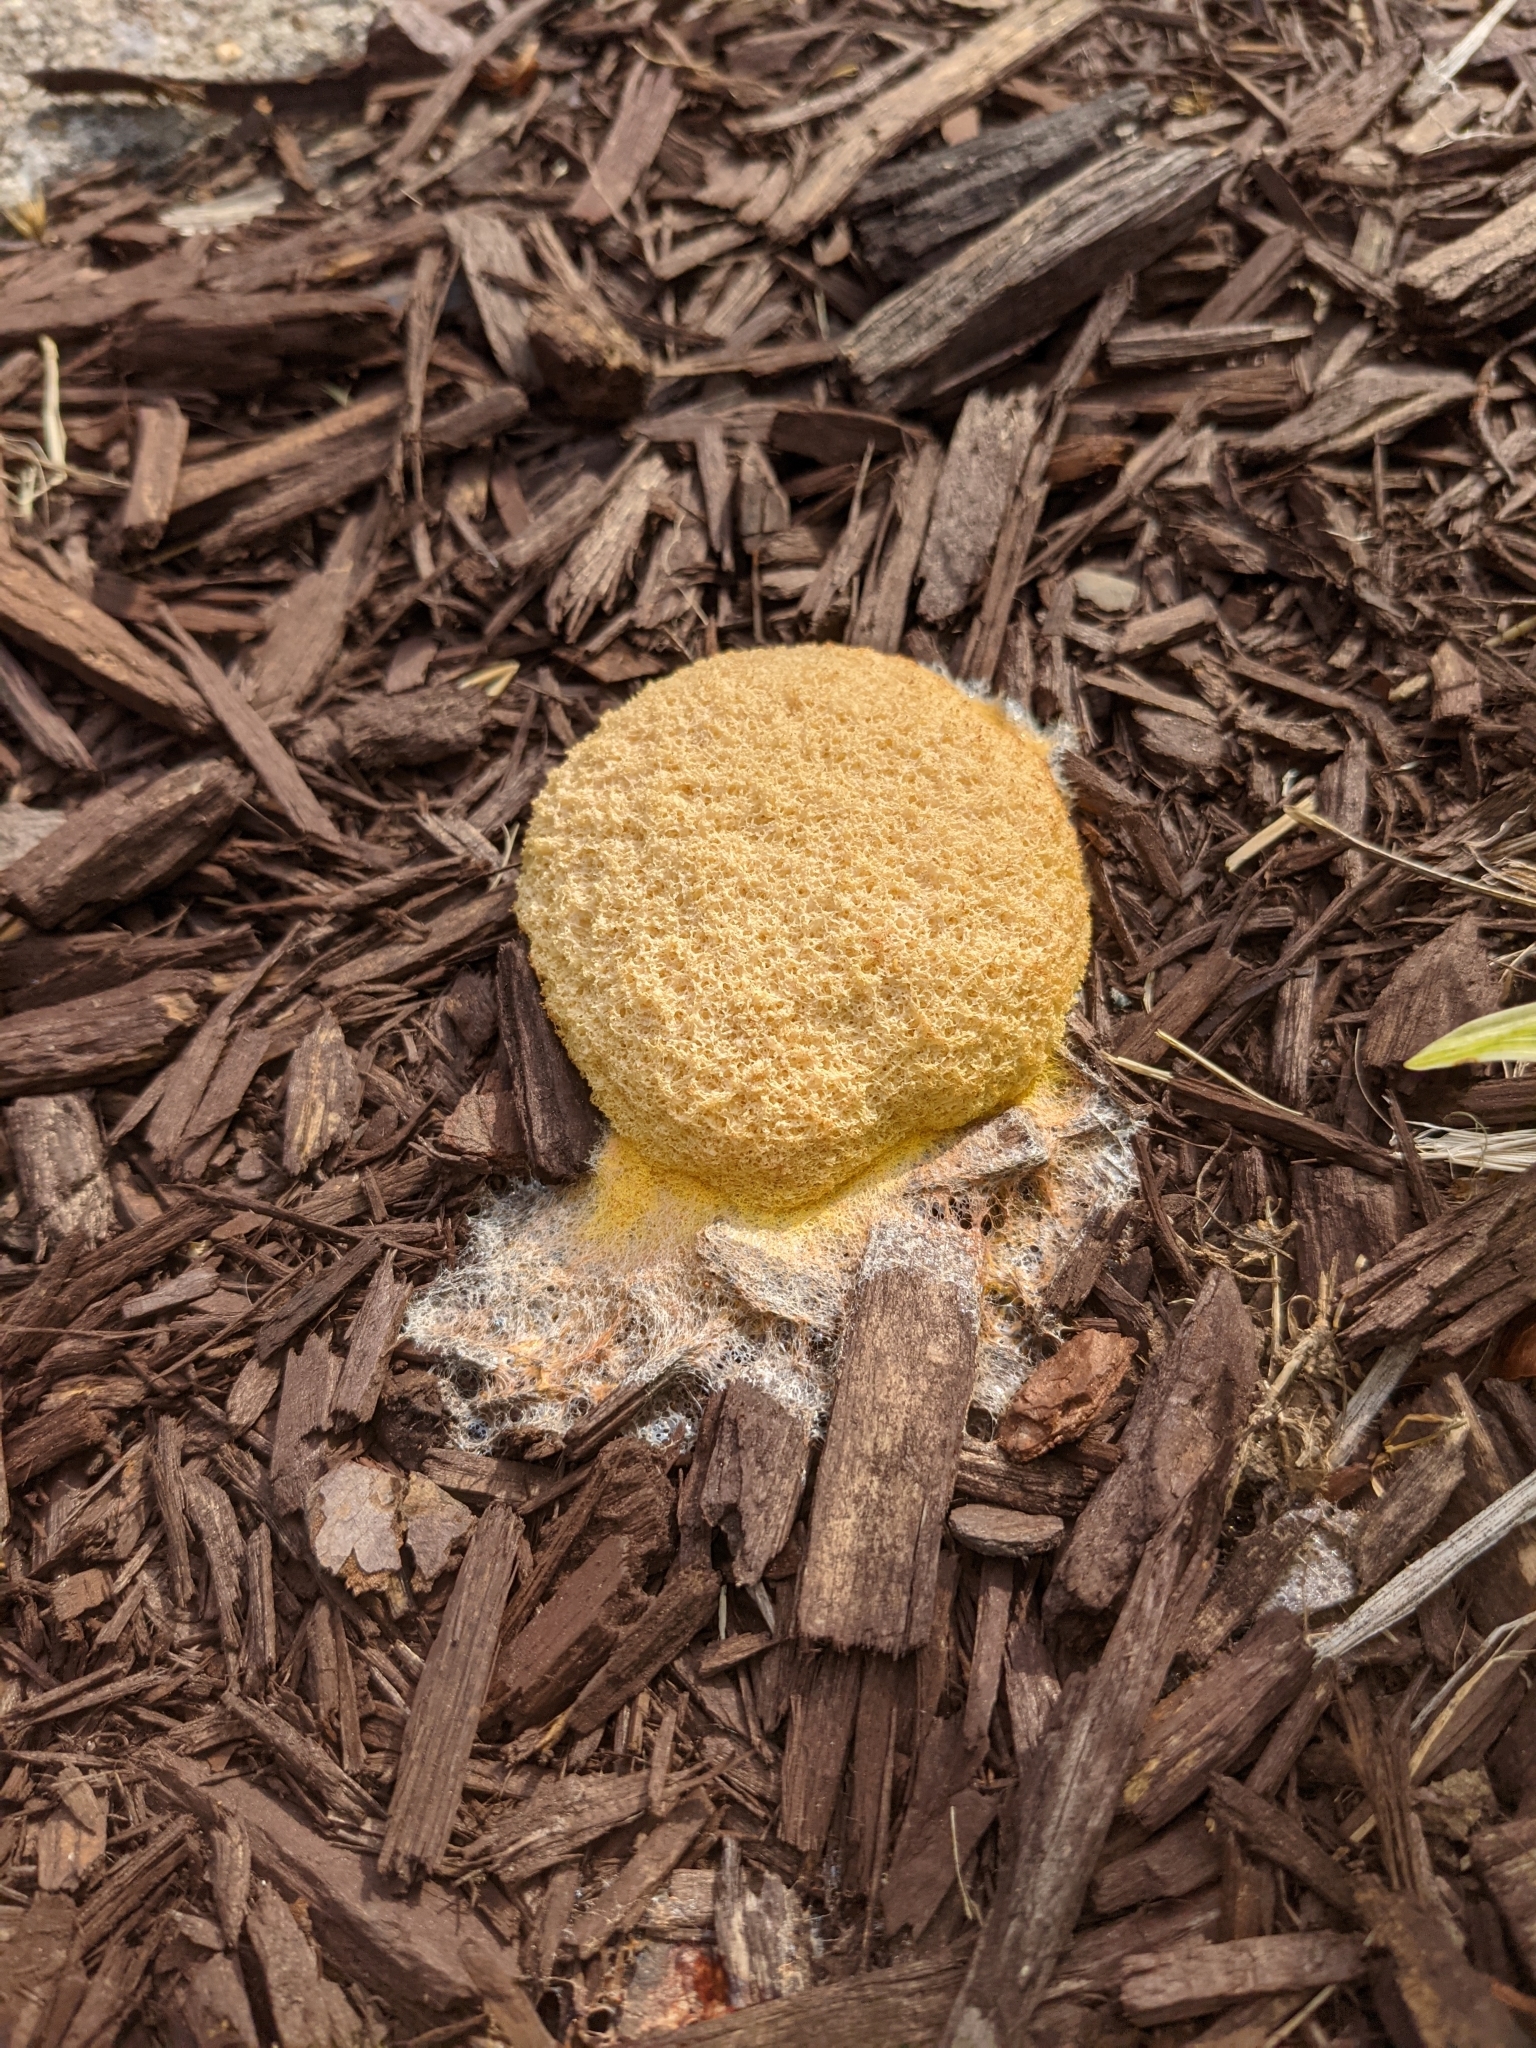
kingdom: Protozoa
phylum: Mycetozoa
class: Myxomycetes
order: Physarales
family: Physaraceae
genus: Fuligo
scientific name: Fuligo septica
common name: Dog vomit slime mold
